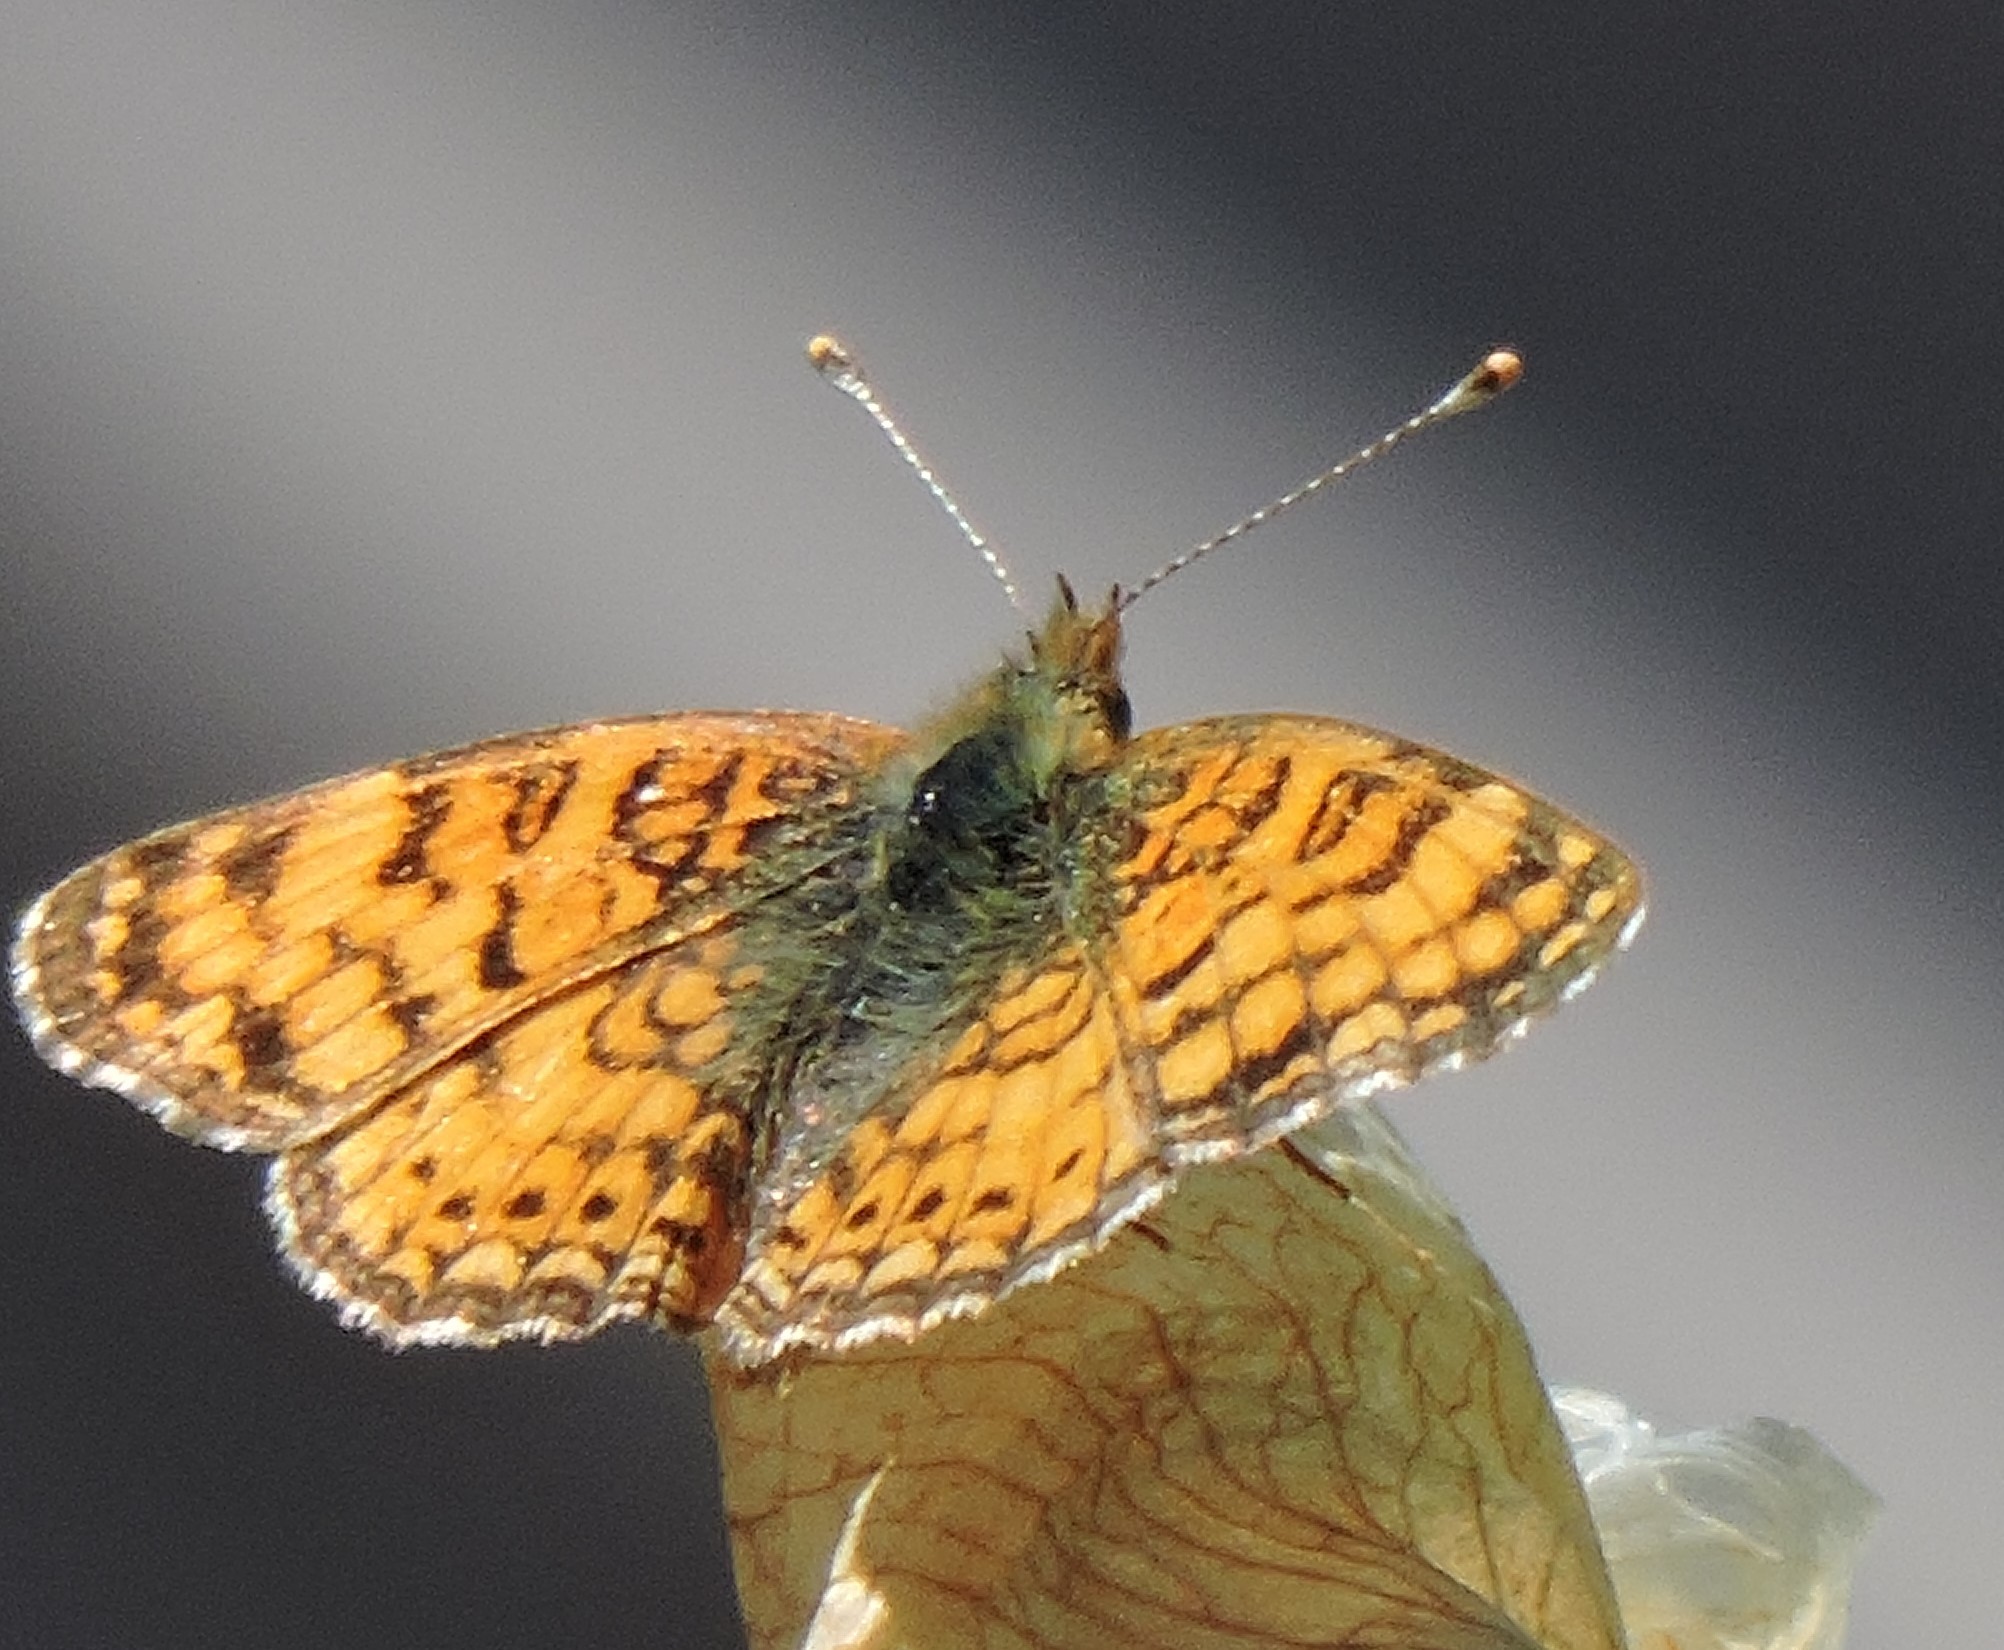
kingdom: Animalia
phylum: Arthropoda
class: Insecta
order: Lepidoptera
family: Nymphalidae
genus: Eresia
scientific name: Eresia aveyrona
